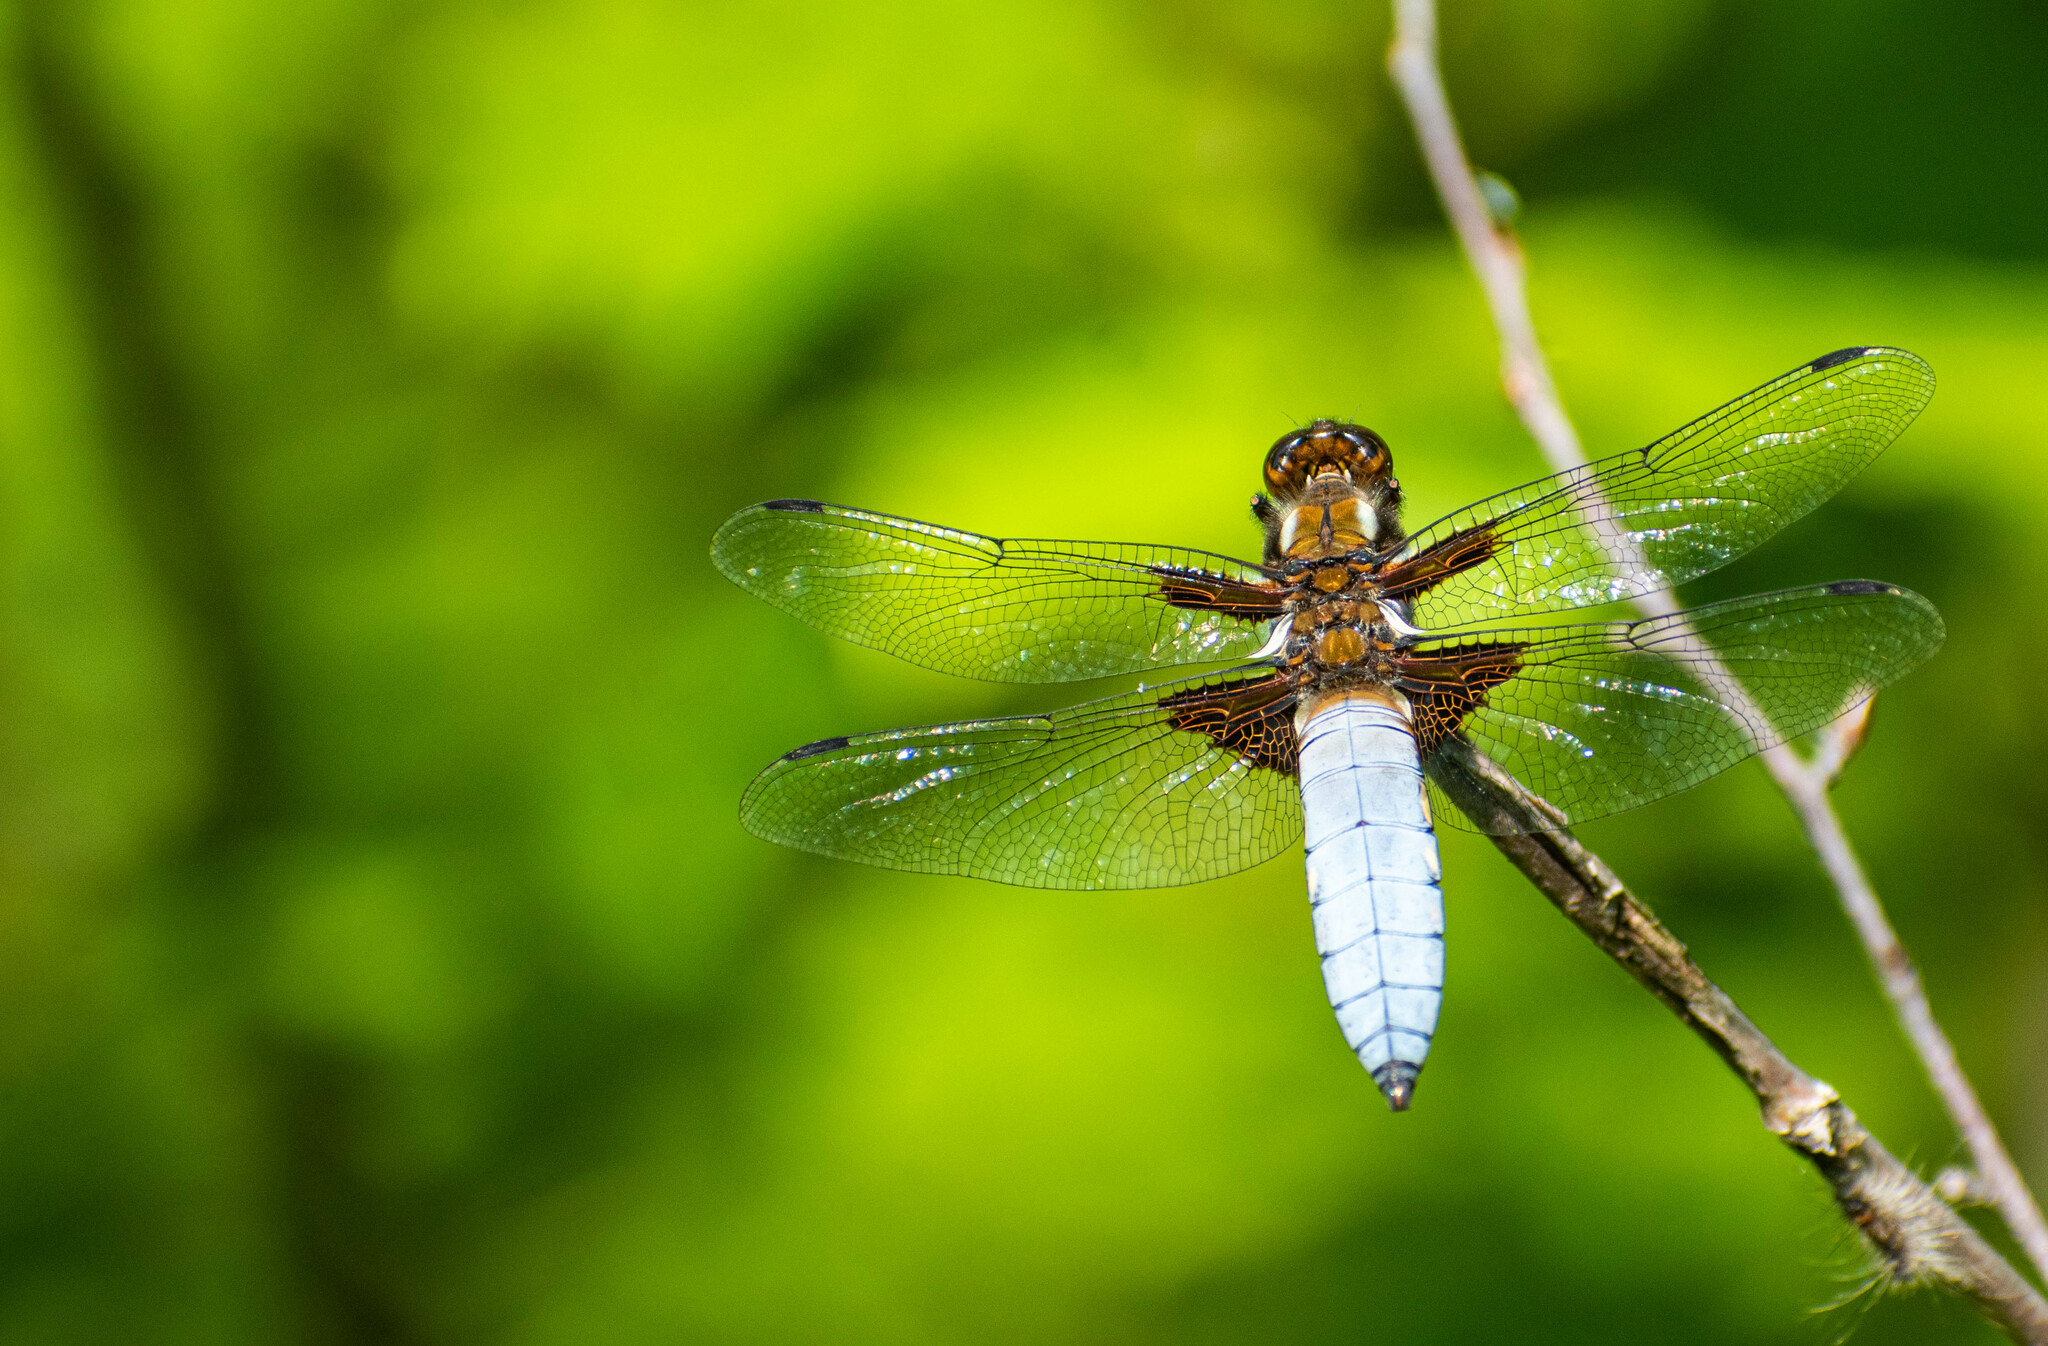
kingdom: Animalia
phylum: Arthropoda
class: Insecta
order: Odonata
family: Libellulidae
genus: Libellula
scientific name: Libellula depressa
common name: Broad-bodied chaser
